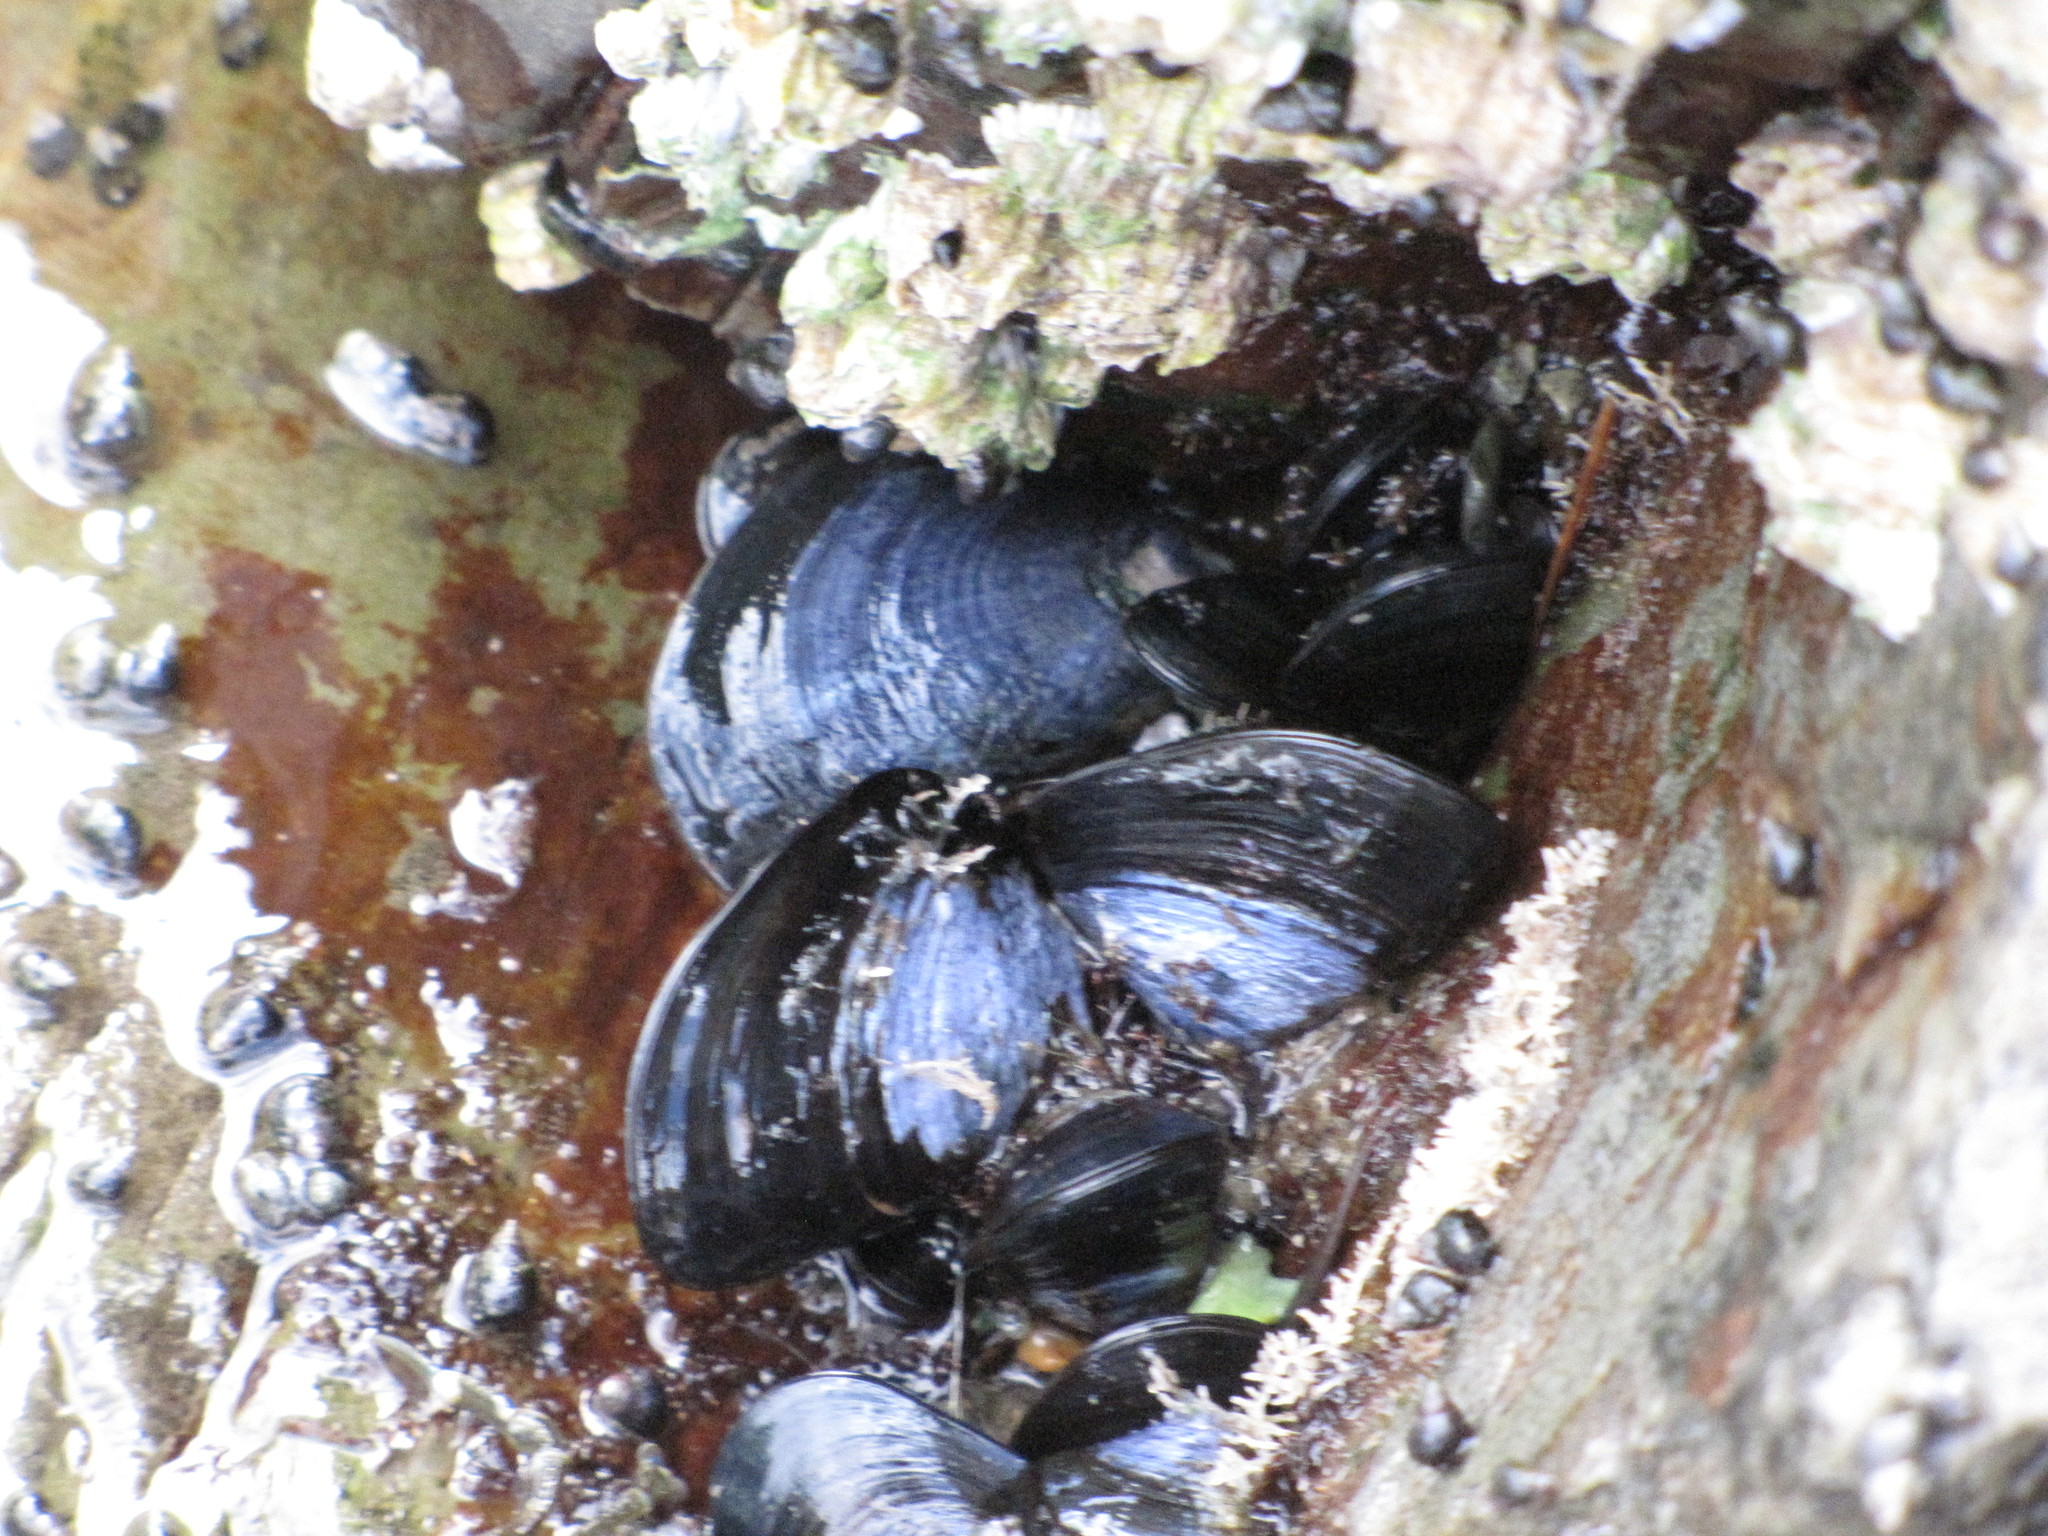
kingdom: Animalia
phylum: Mollusca
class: Bivalvia
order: Mytilida
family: Mytilidae
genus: Mytilus
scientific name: Mytilus
